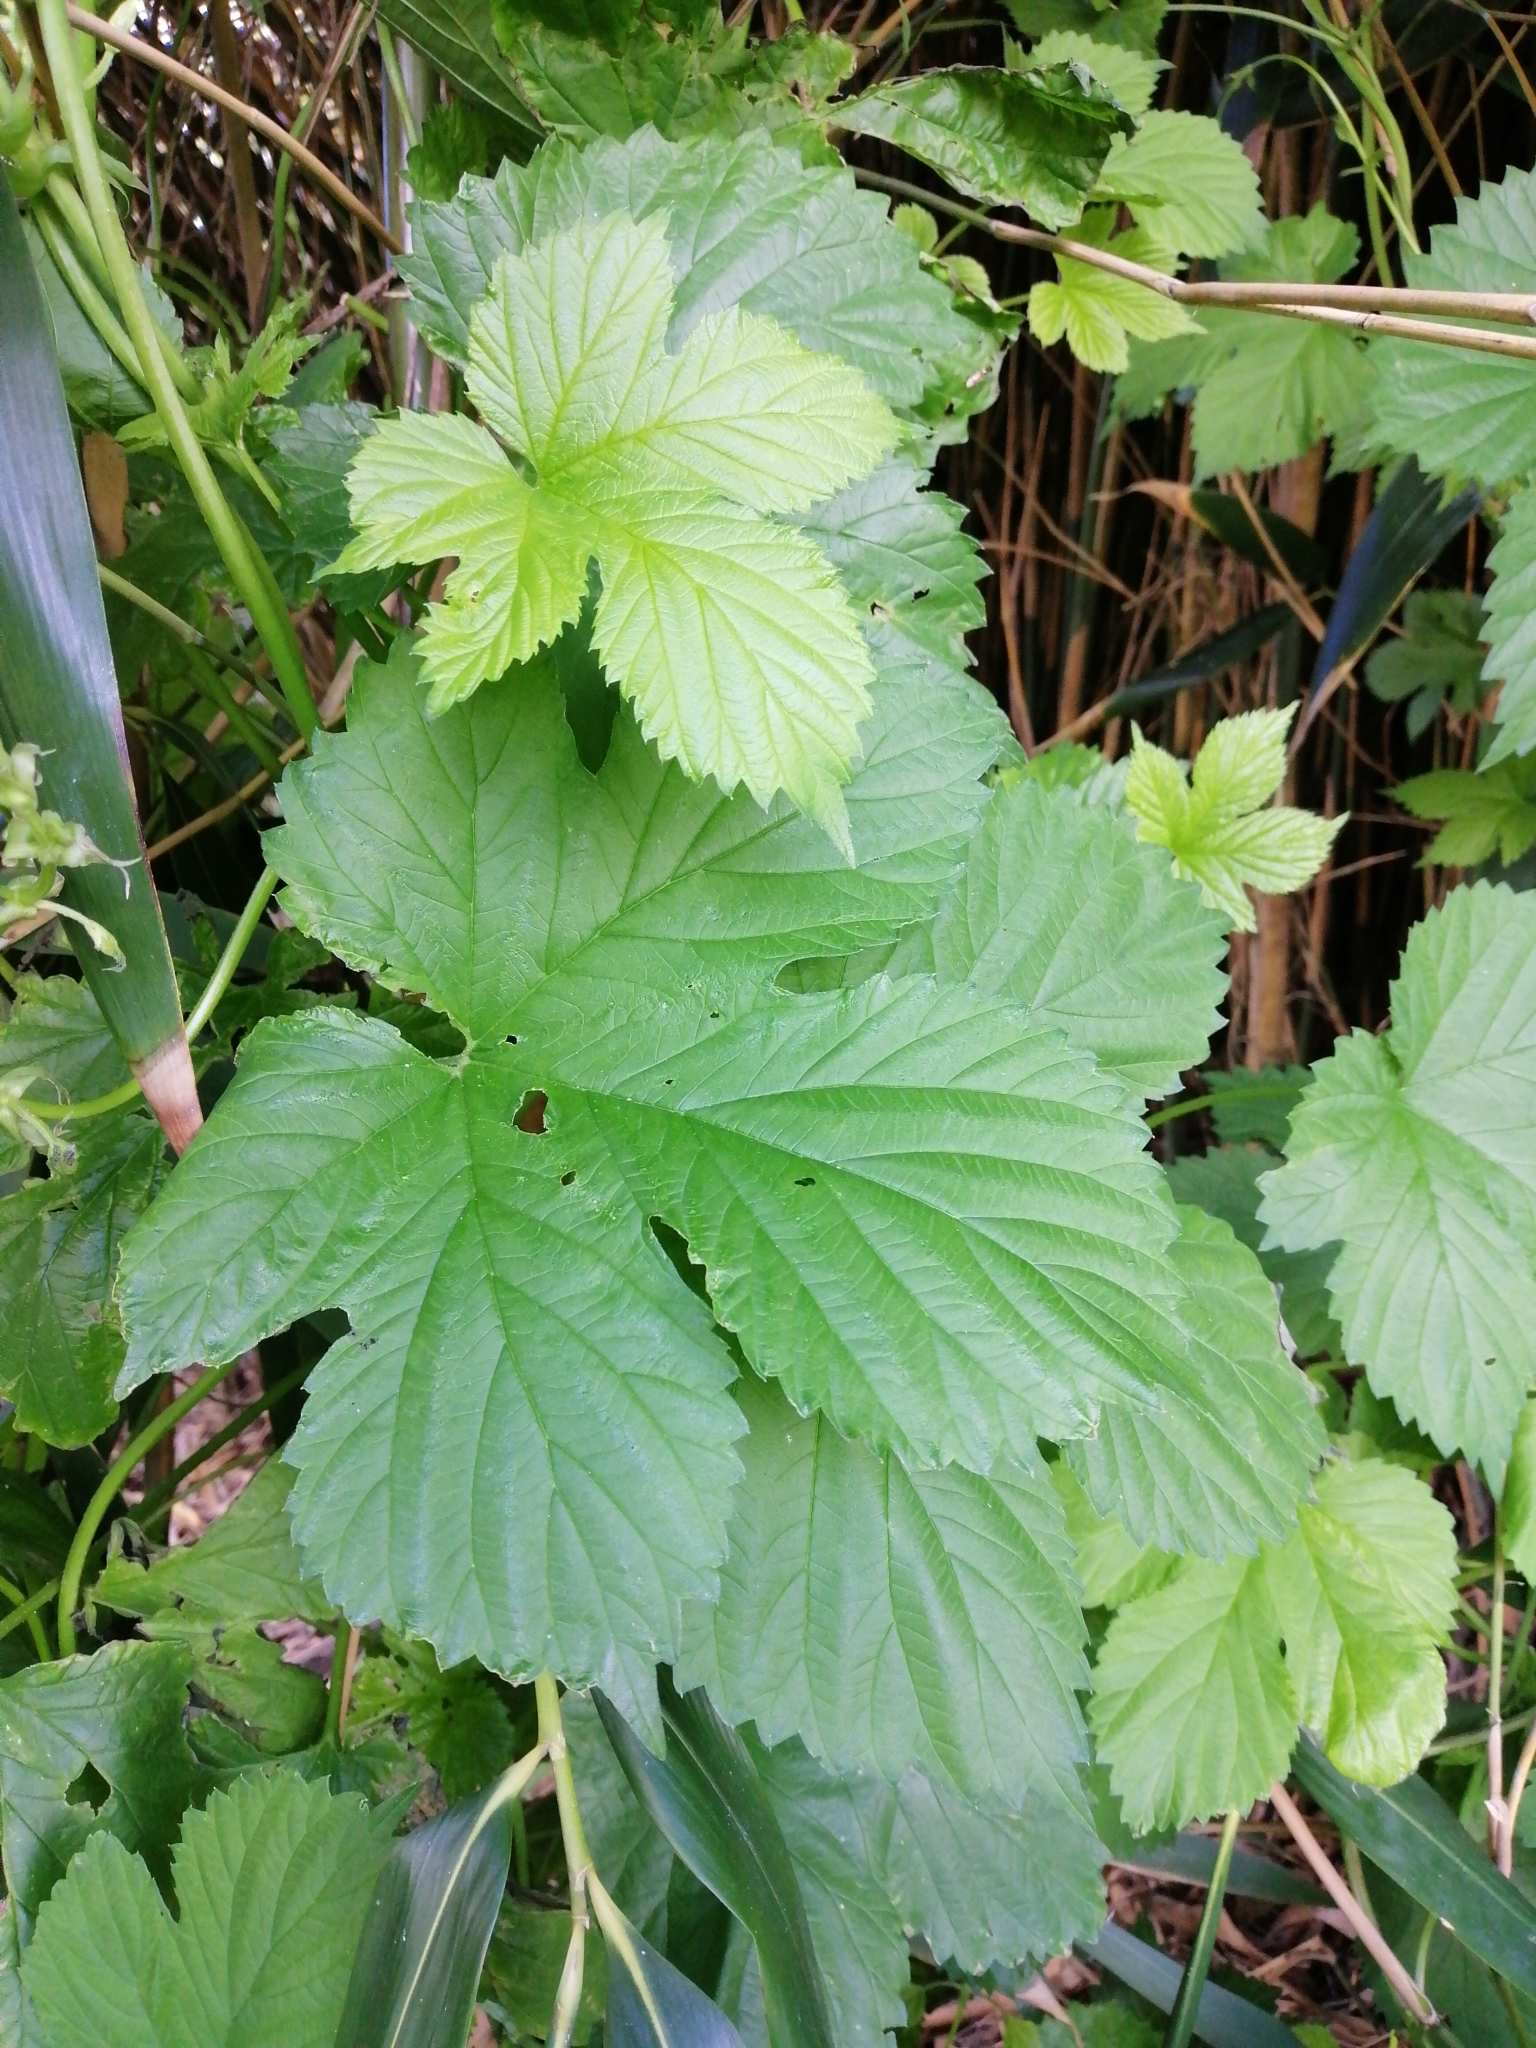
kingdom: Plantae
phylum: Tracheophyta
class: Magnoliopsida
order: Rosales
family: Cannabaceae
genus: Humulus
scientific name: Humulus lupulus
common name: Hop
